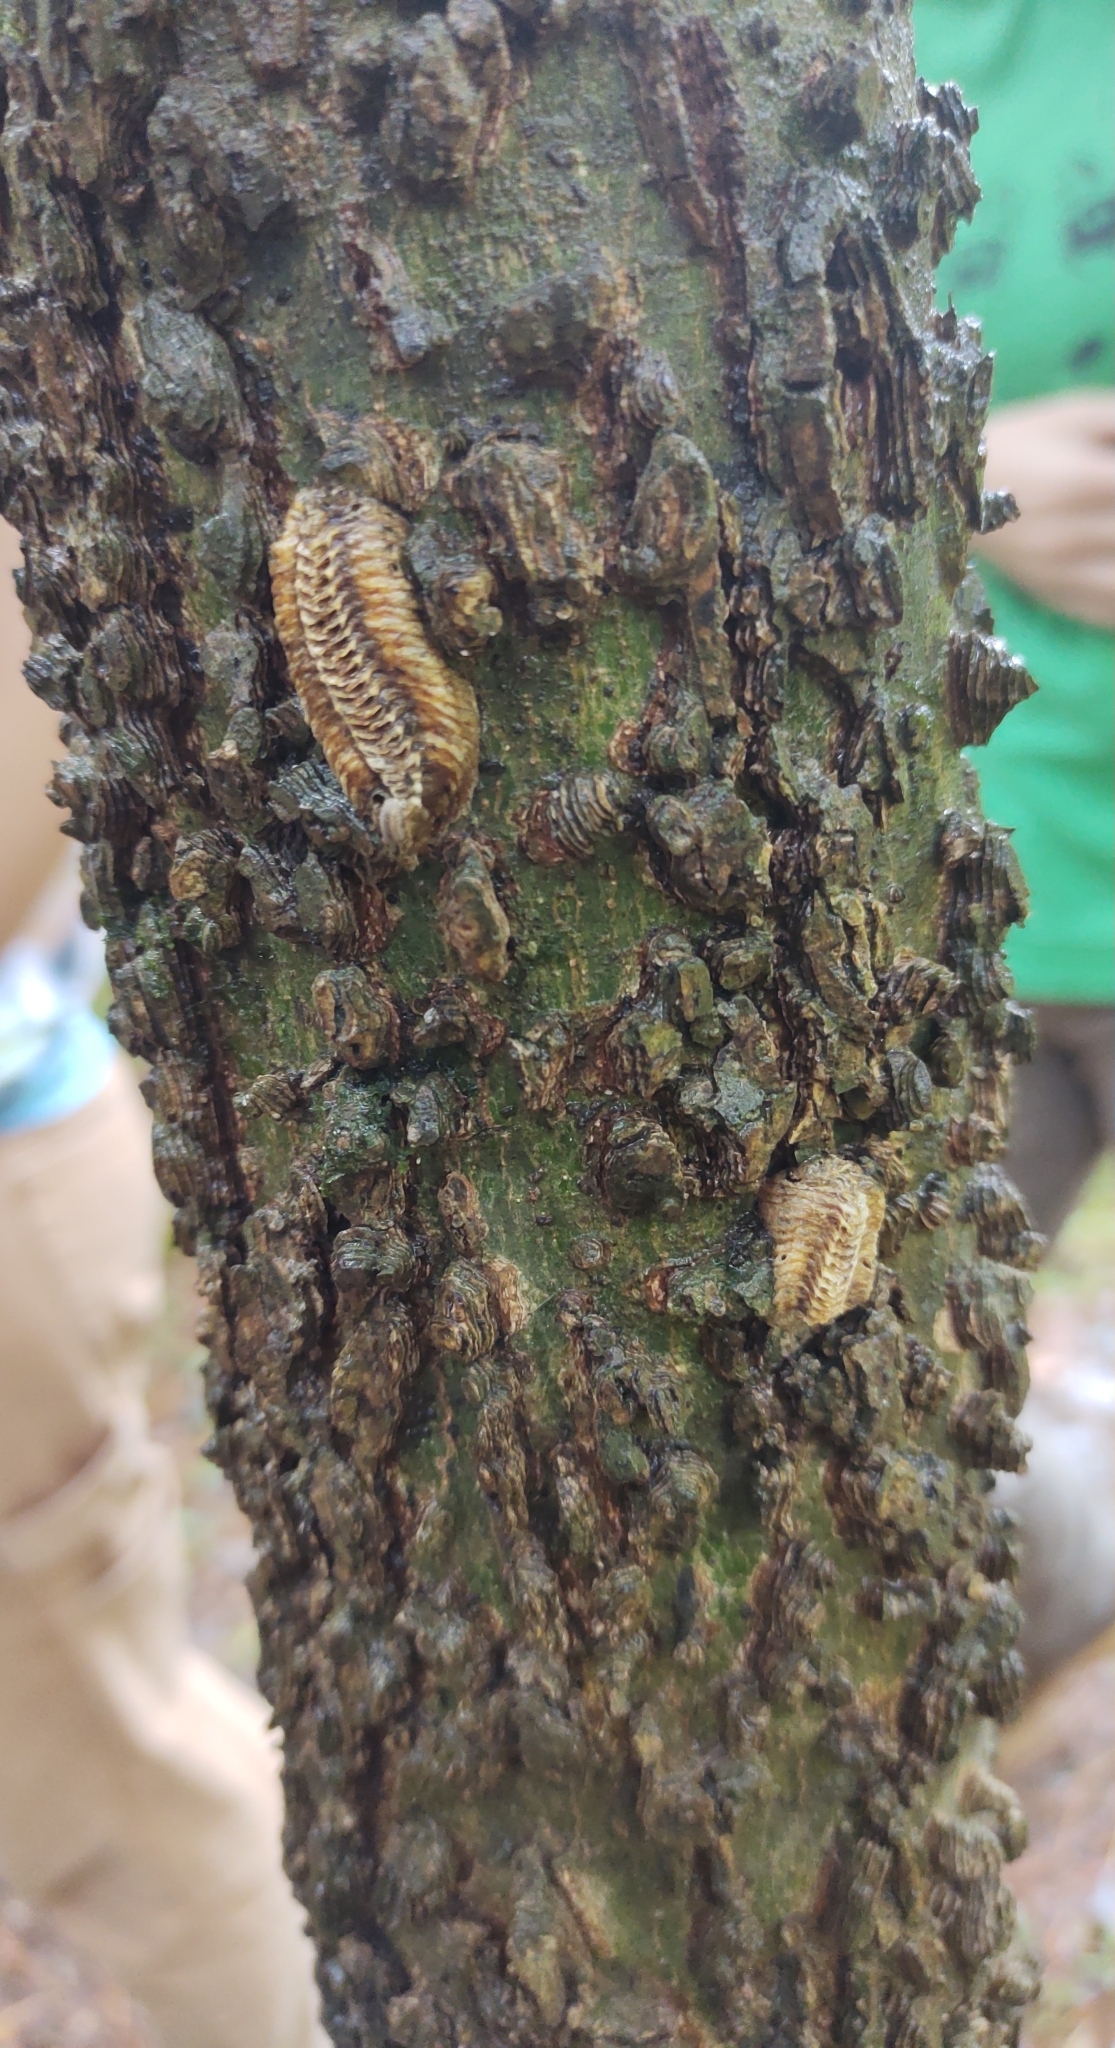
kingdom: Animalia
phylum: Arthropoda
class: Insecta
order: Mantodea
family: Mantidae
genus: Stagmomantis
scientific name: Stagmomantis carolina
